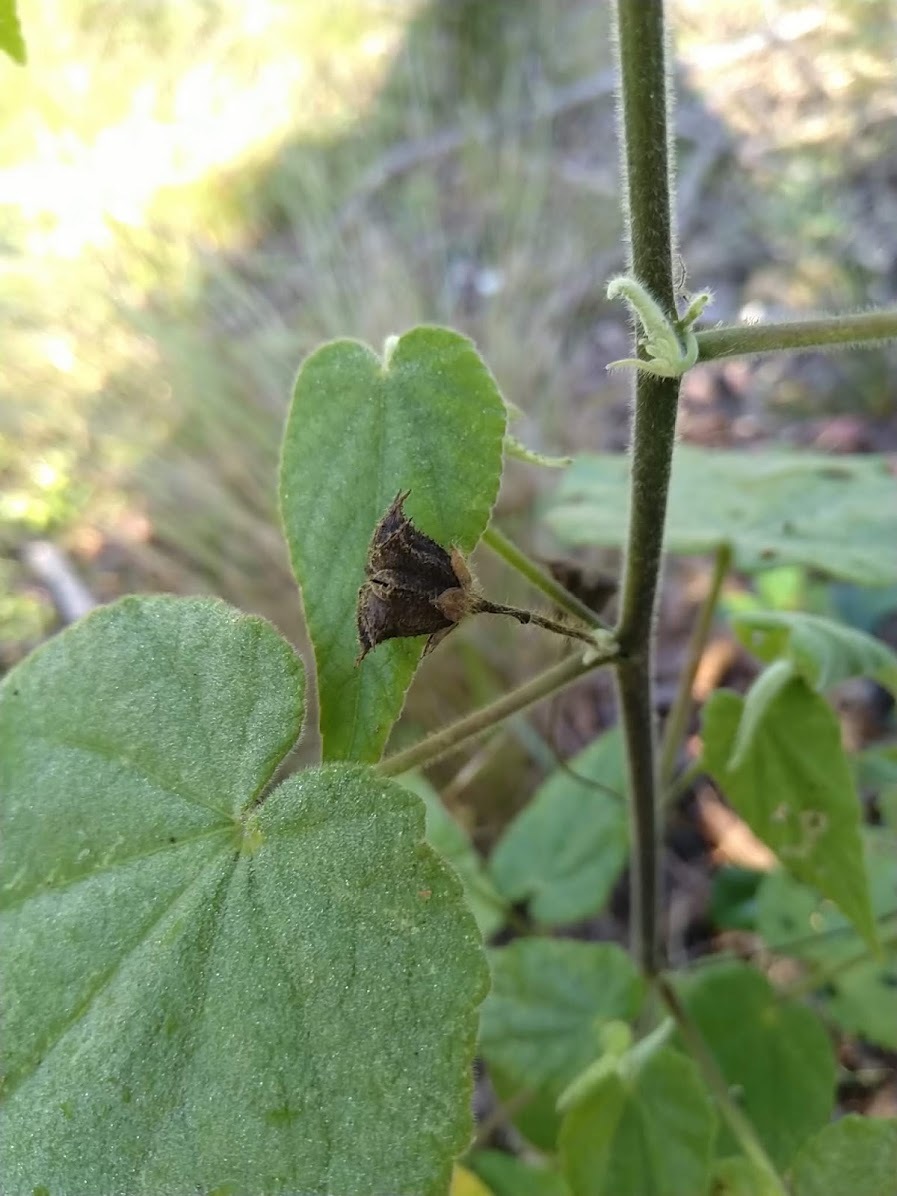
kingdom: Plantae
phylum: Tracheophyta
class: Magnoliopsida
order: Malvales
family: Malvaceae
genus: Abutilon
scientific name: Abutilon oxycarpum
